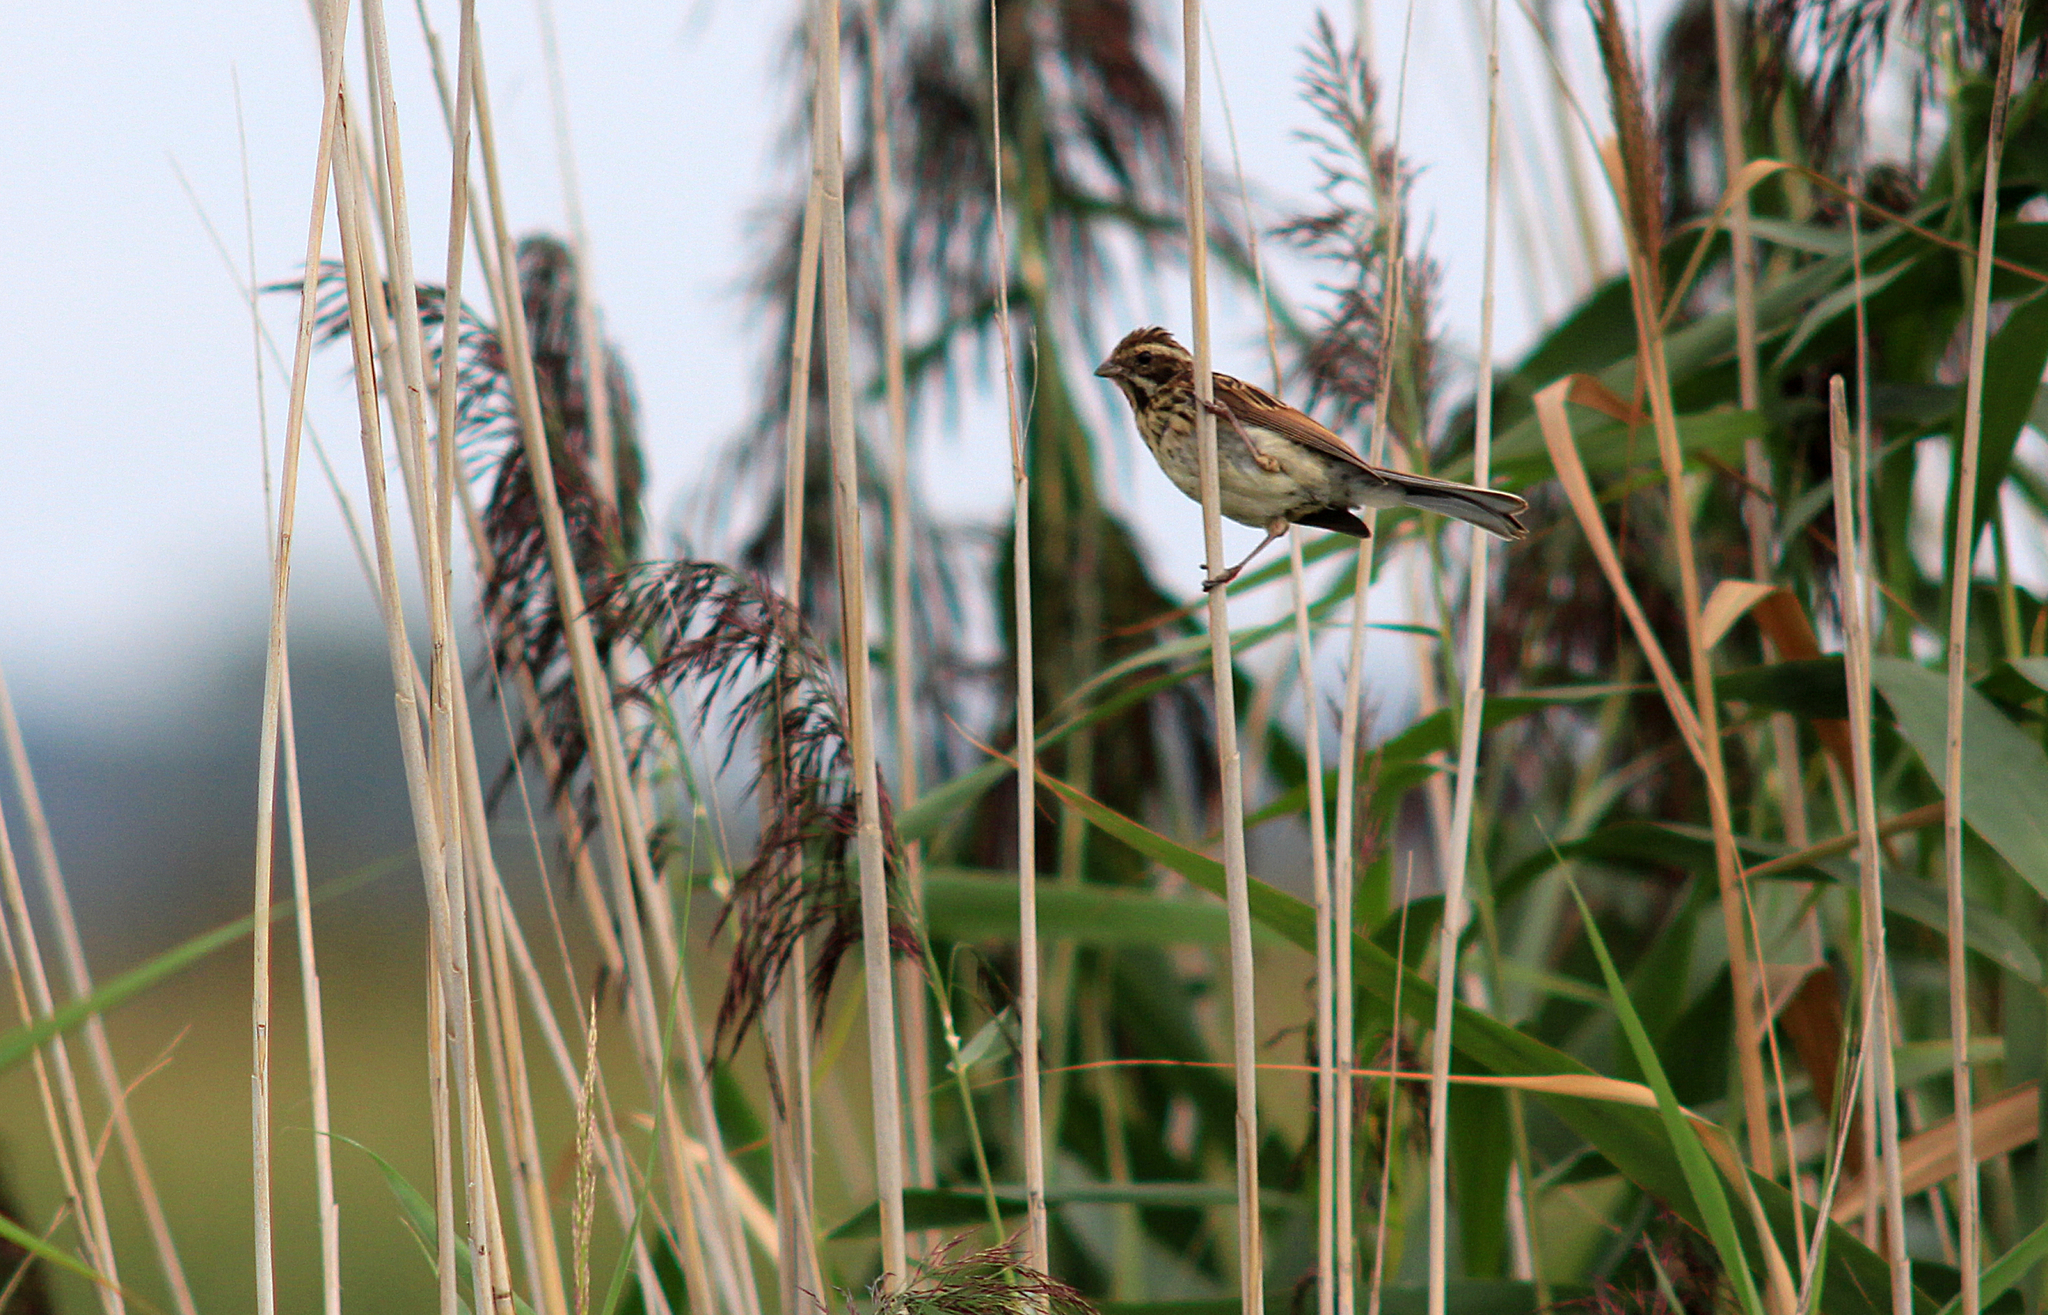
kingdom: Animalia
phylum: Chordata
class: Aves
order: Passeriformes
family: Emberizidae
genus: Emberiza
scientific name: Emberiza schoeniclus
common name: Reed bunting
